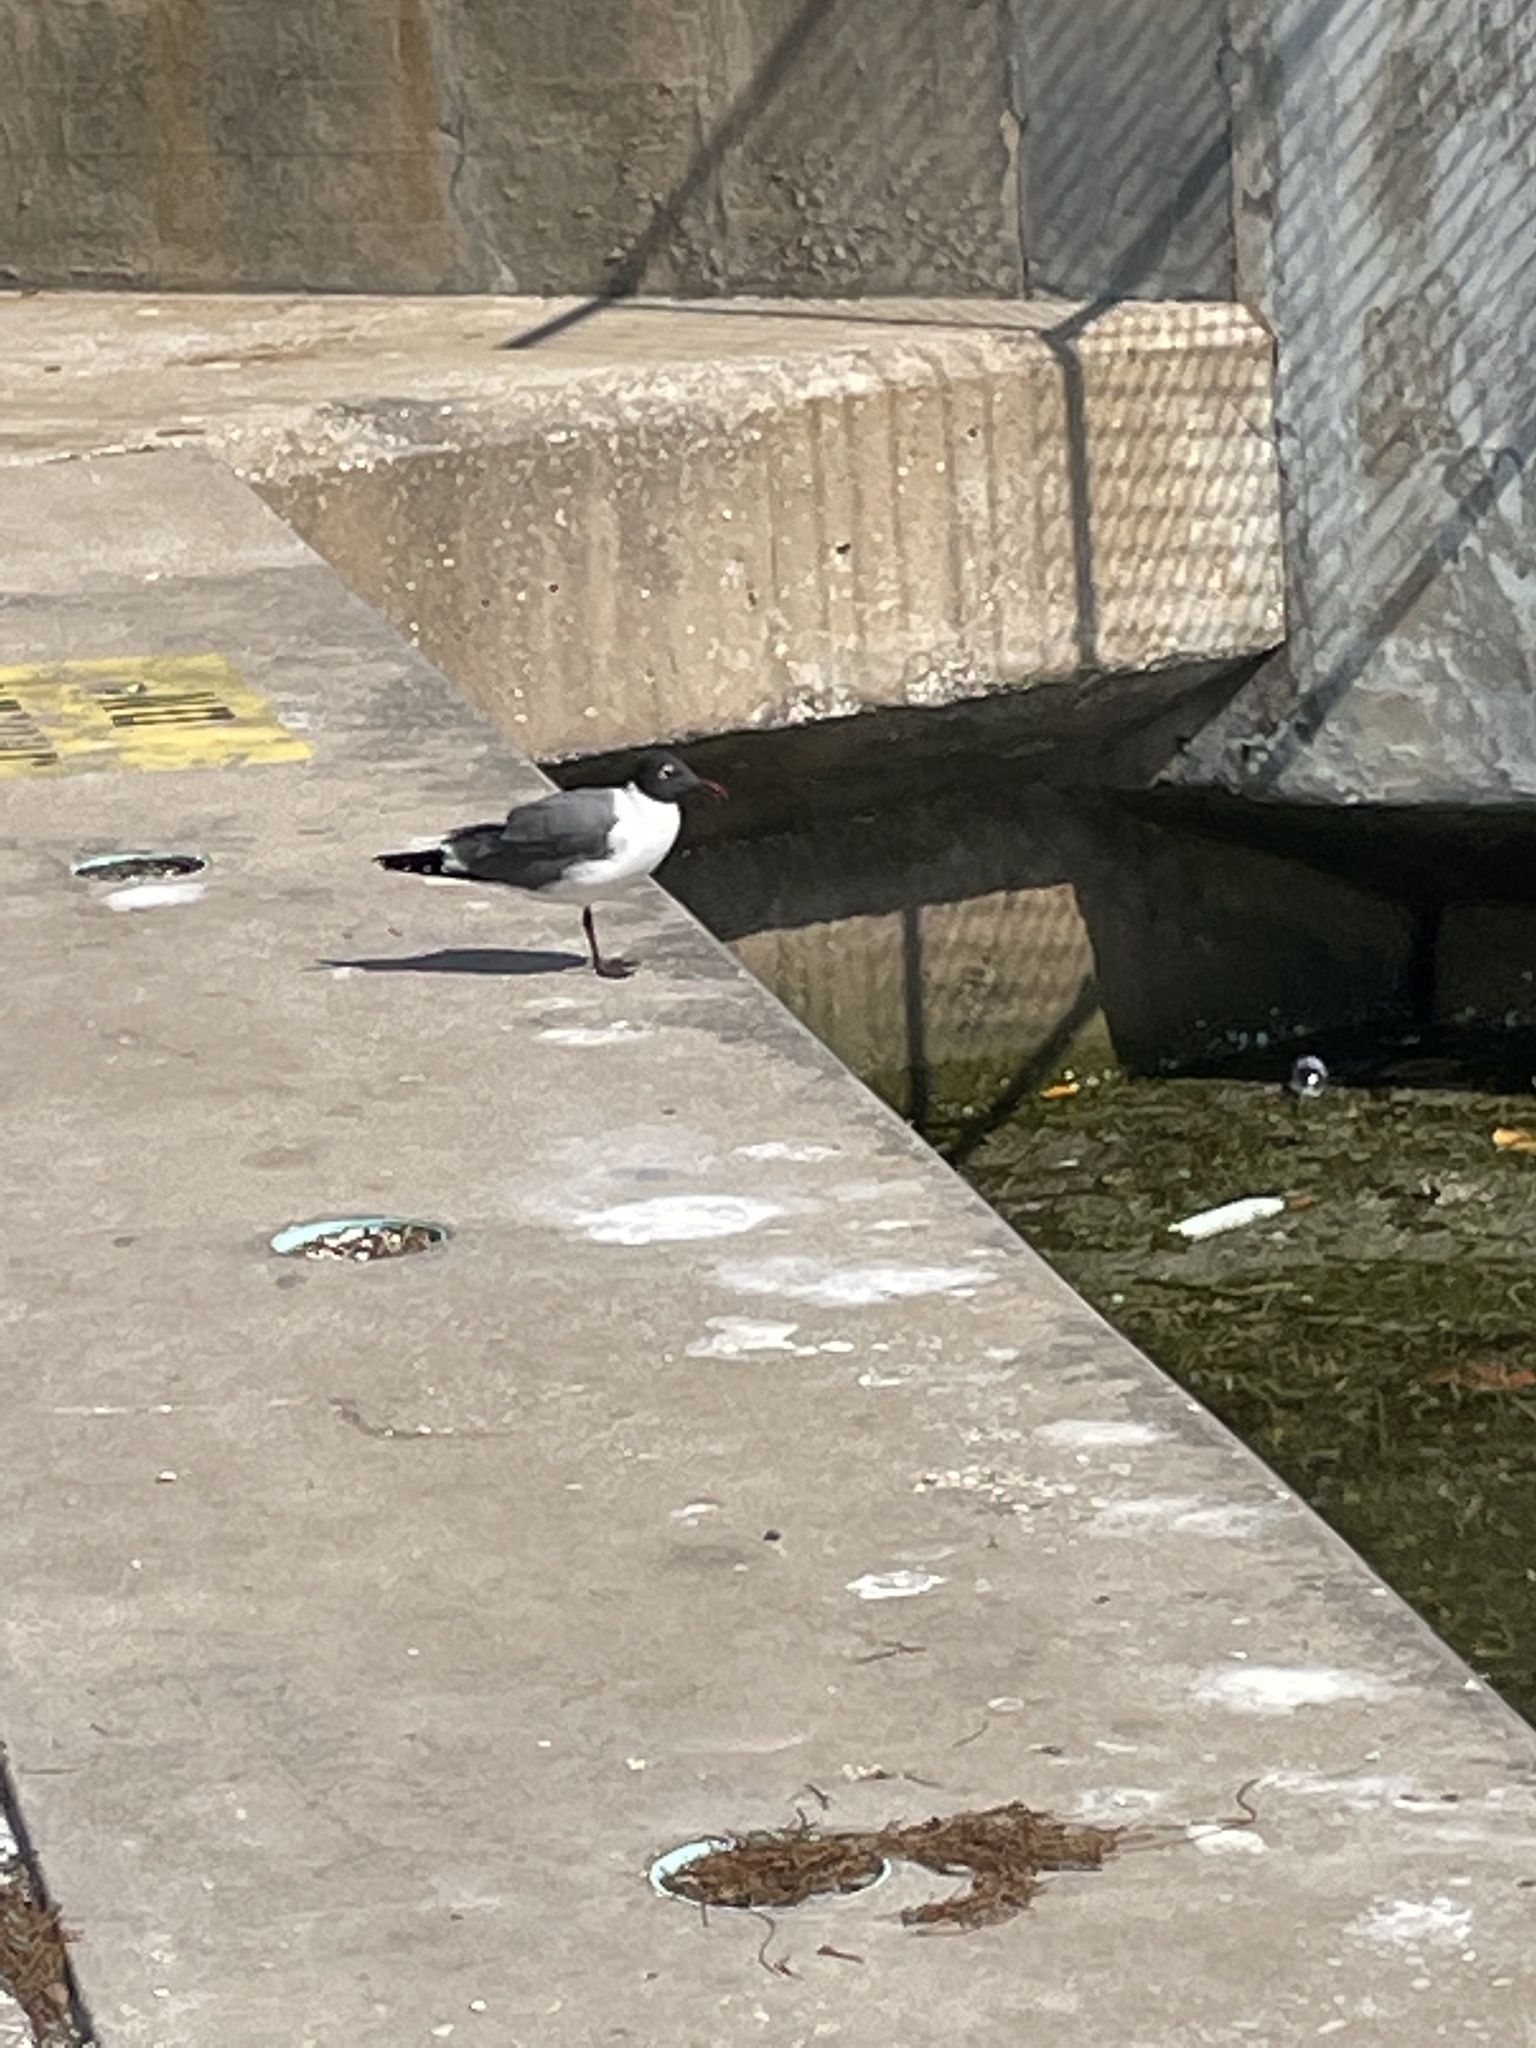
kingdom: Animalia
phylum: Chordata
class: Aves
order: Charadriiformes
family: Laridae
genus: Leucophaeus
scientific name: Leucophaeus atricilla
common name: Laughing gull
